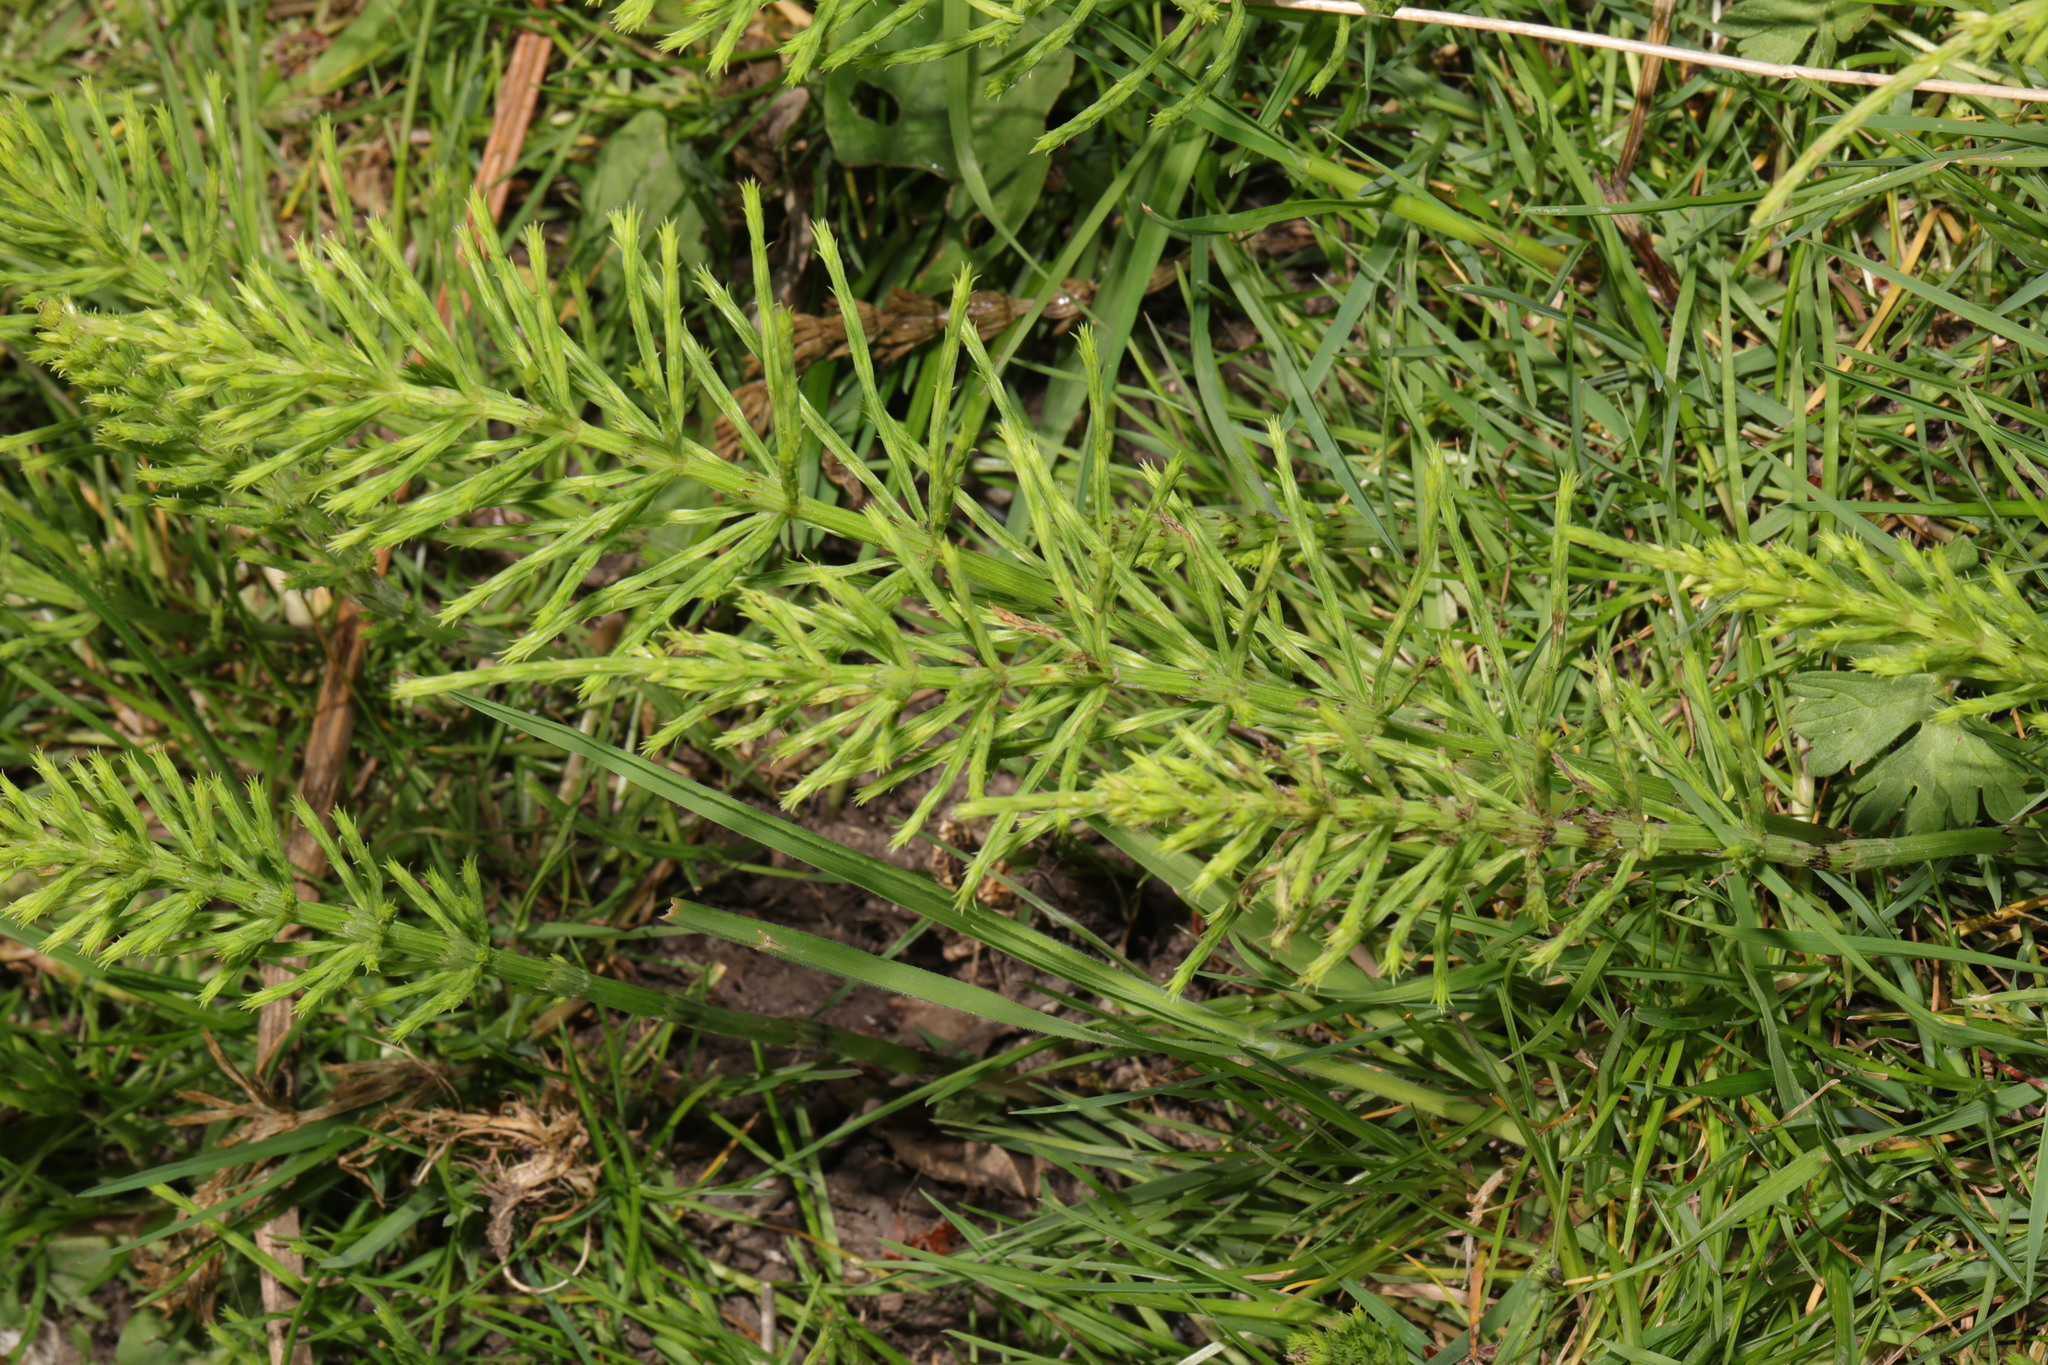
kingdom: Plantae
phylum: Tracheophyta
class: Polypodiopsida
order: Equisetales
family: Equisetaceae
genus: Equisetum
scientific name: Equisetum arvense
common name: Field horsetail
